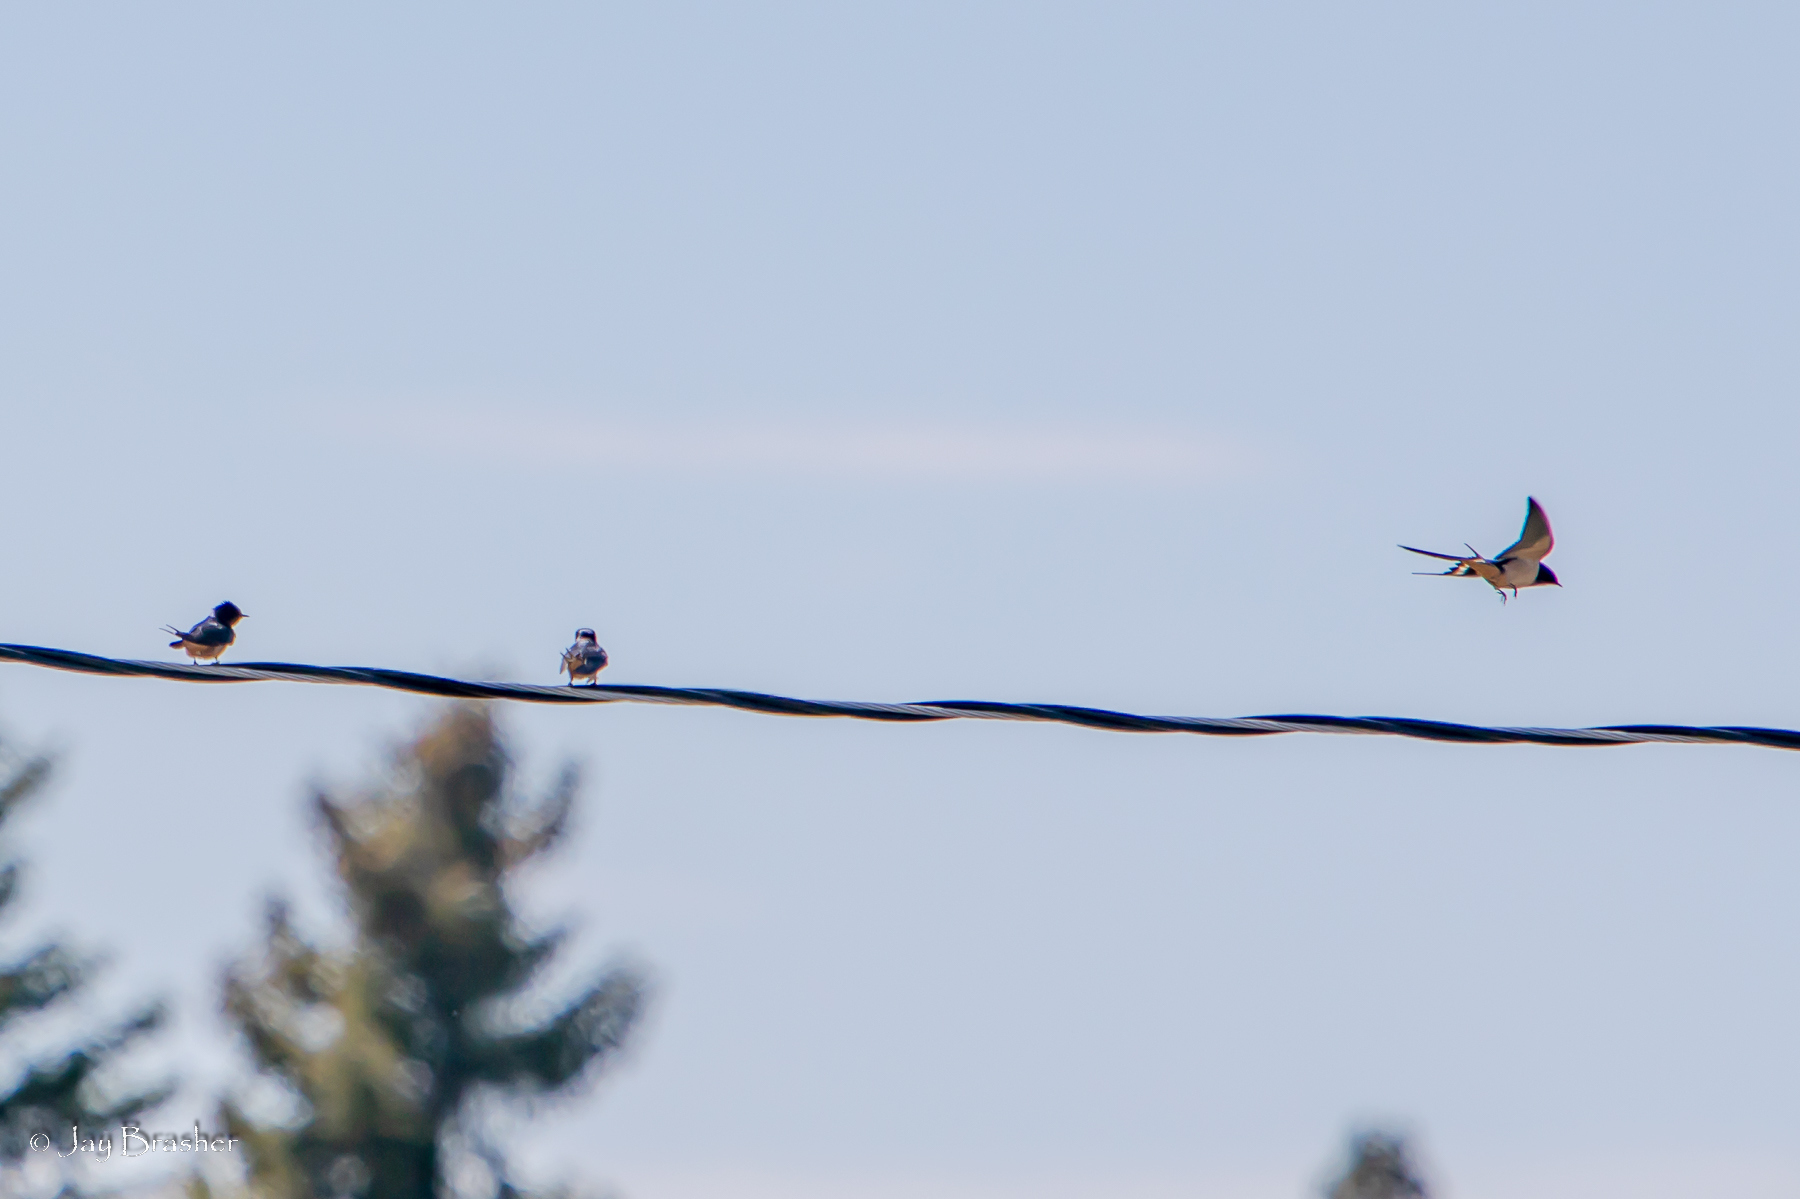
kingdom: Animalia
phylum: Chordata
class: Aves
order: Passeriformes
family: Hirundinidae
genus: Hirundo
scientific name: Hirundo rustica
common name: Barn swallow
